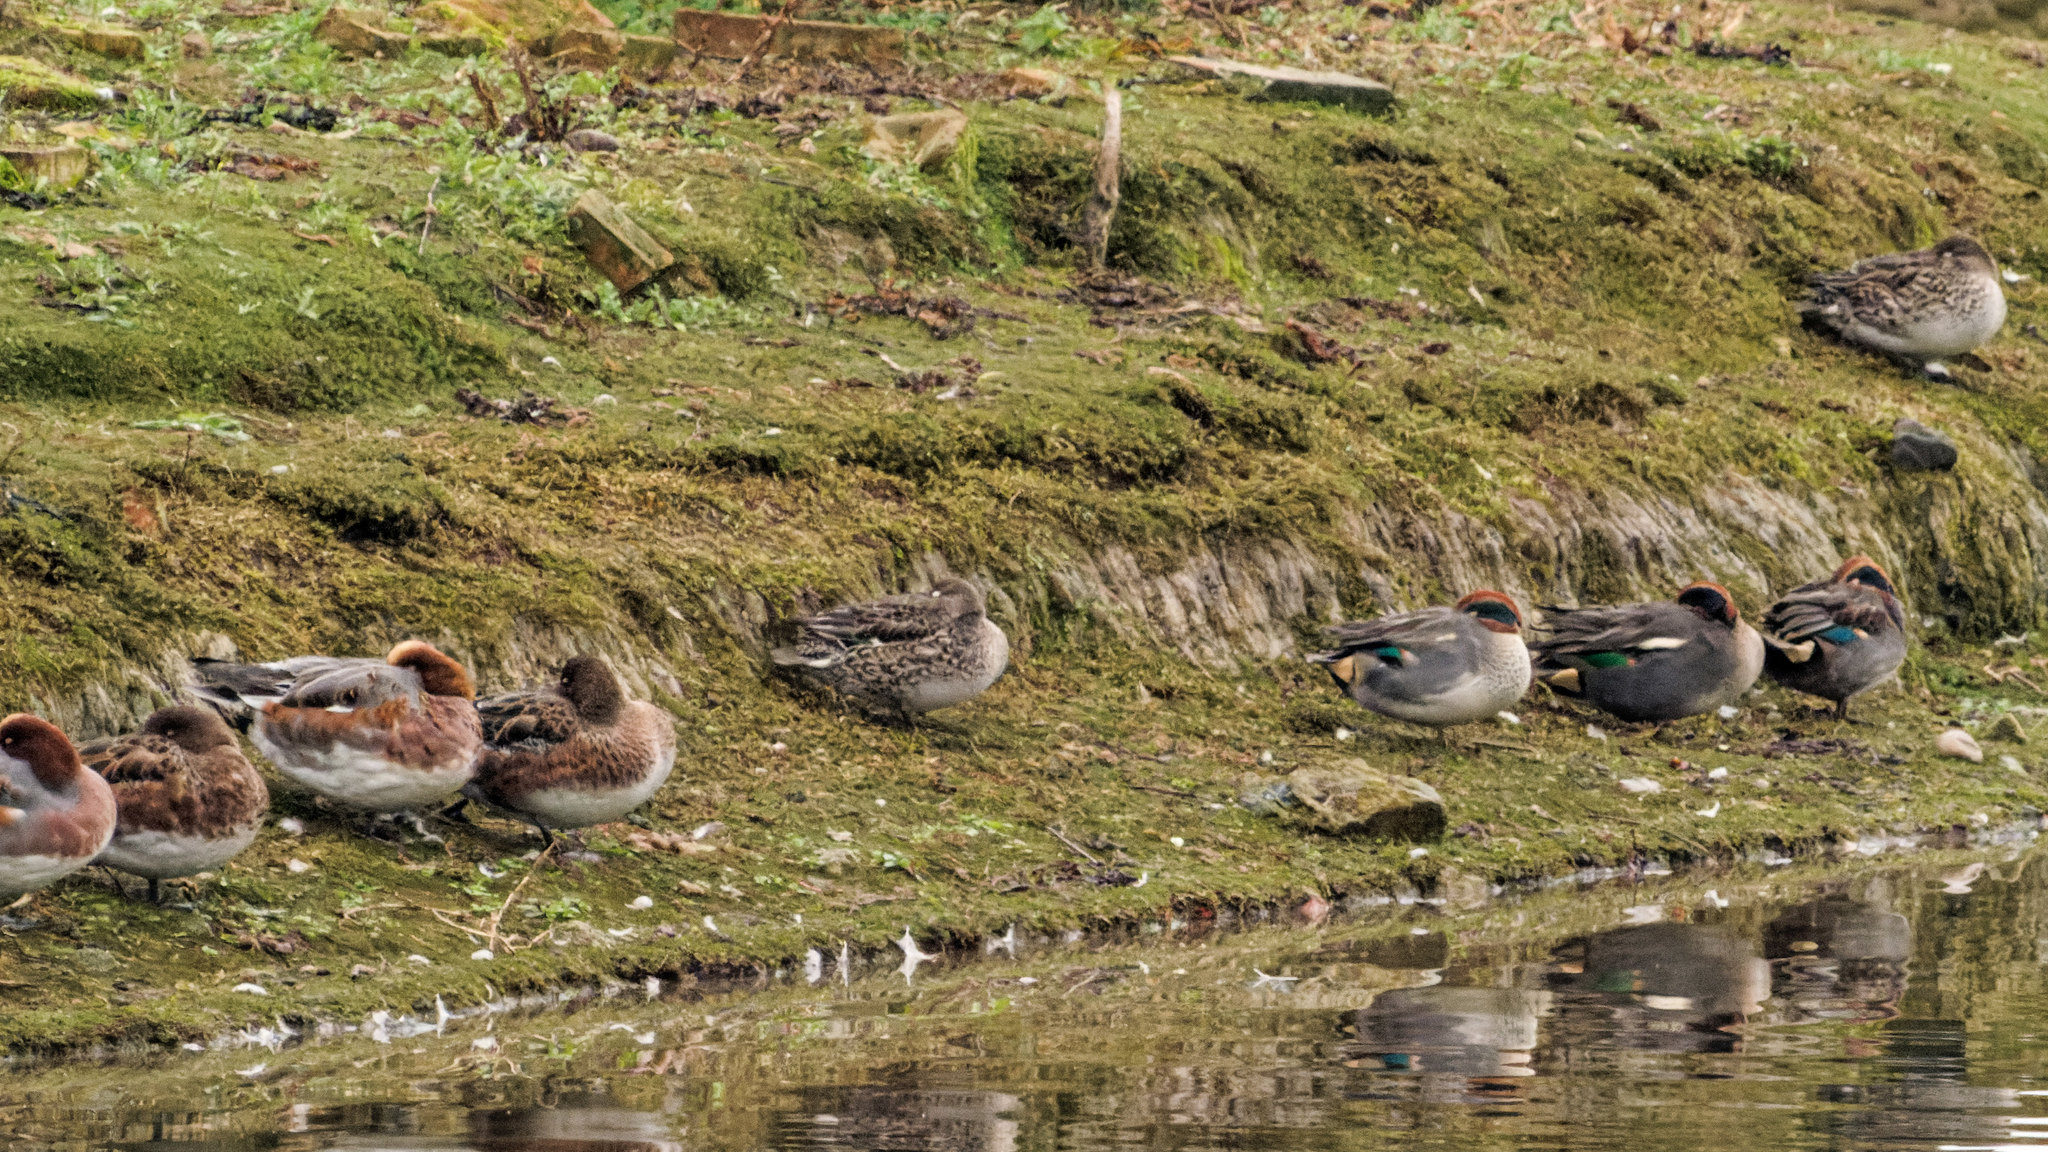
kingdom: Animalia
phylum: Chordata
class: Aves
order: Anseriformes
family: Anatidae
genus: Mareca
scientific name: Mareca penelope
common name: Eurasian wigeon
